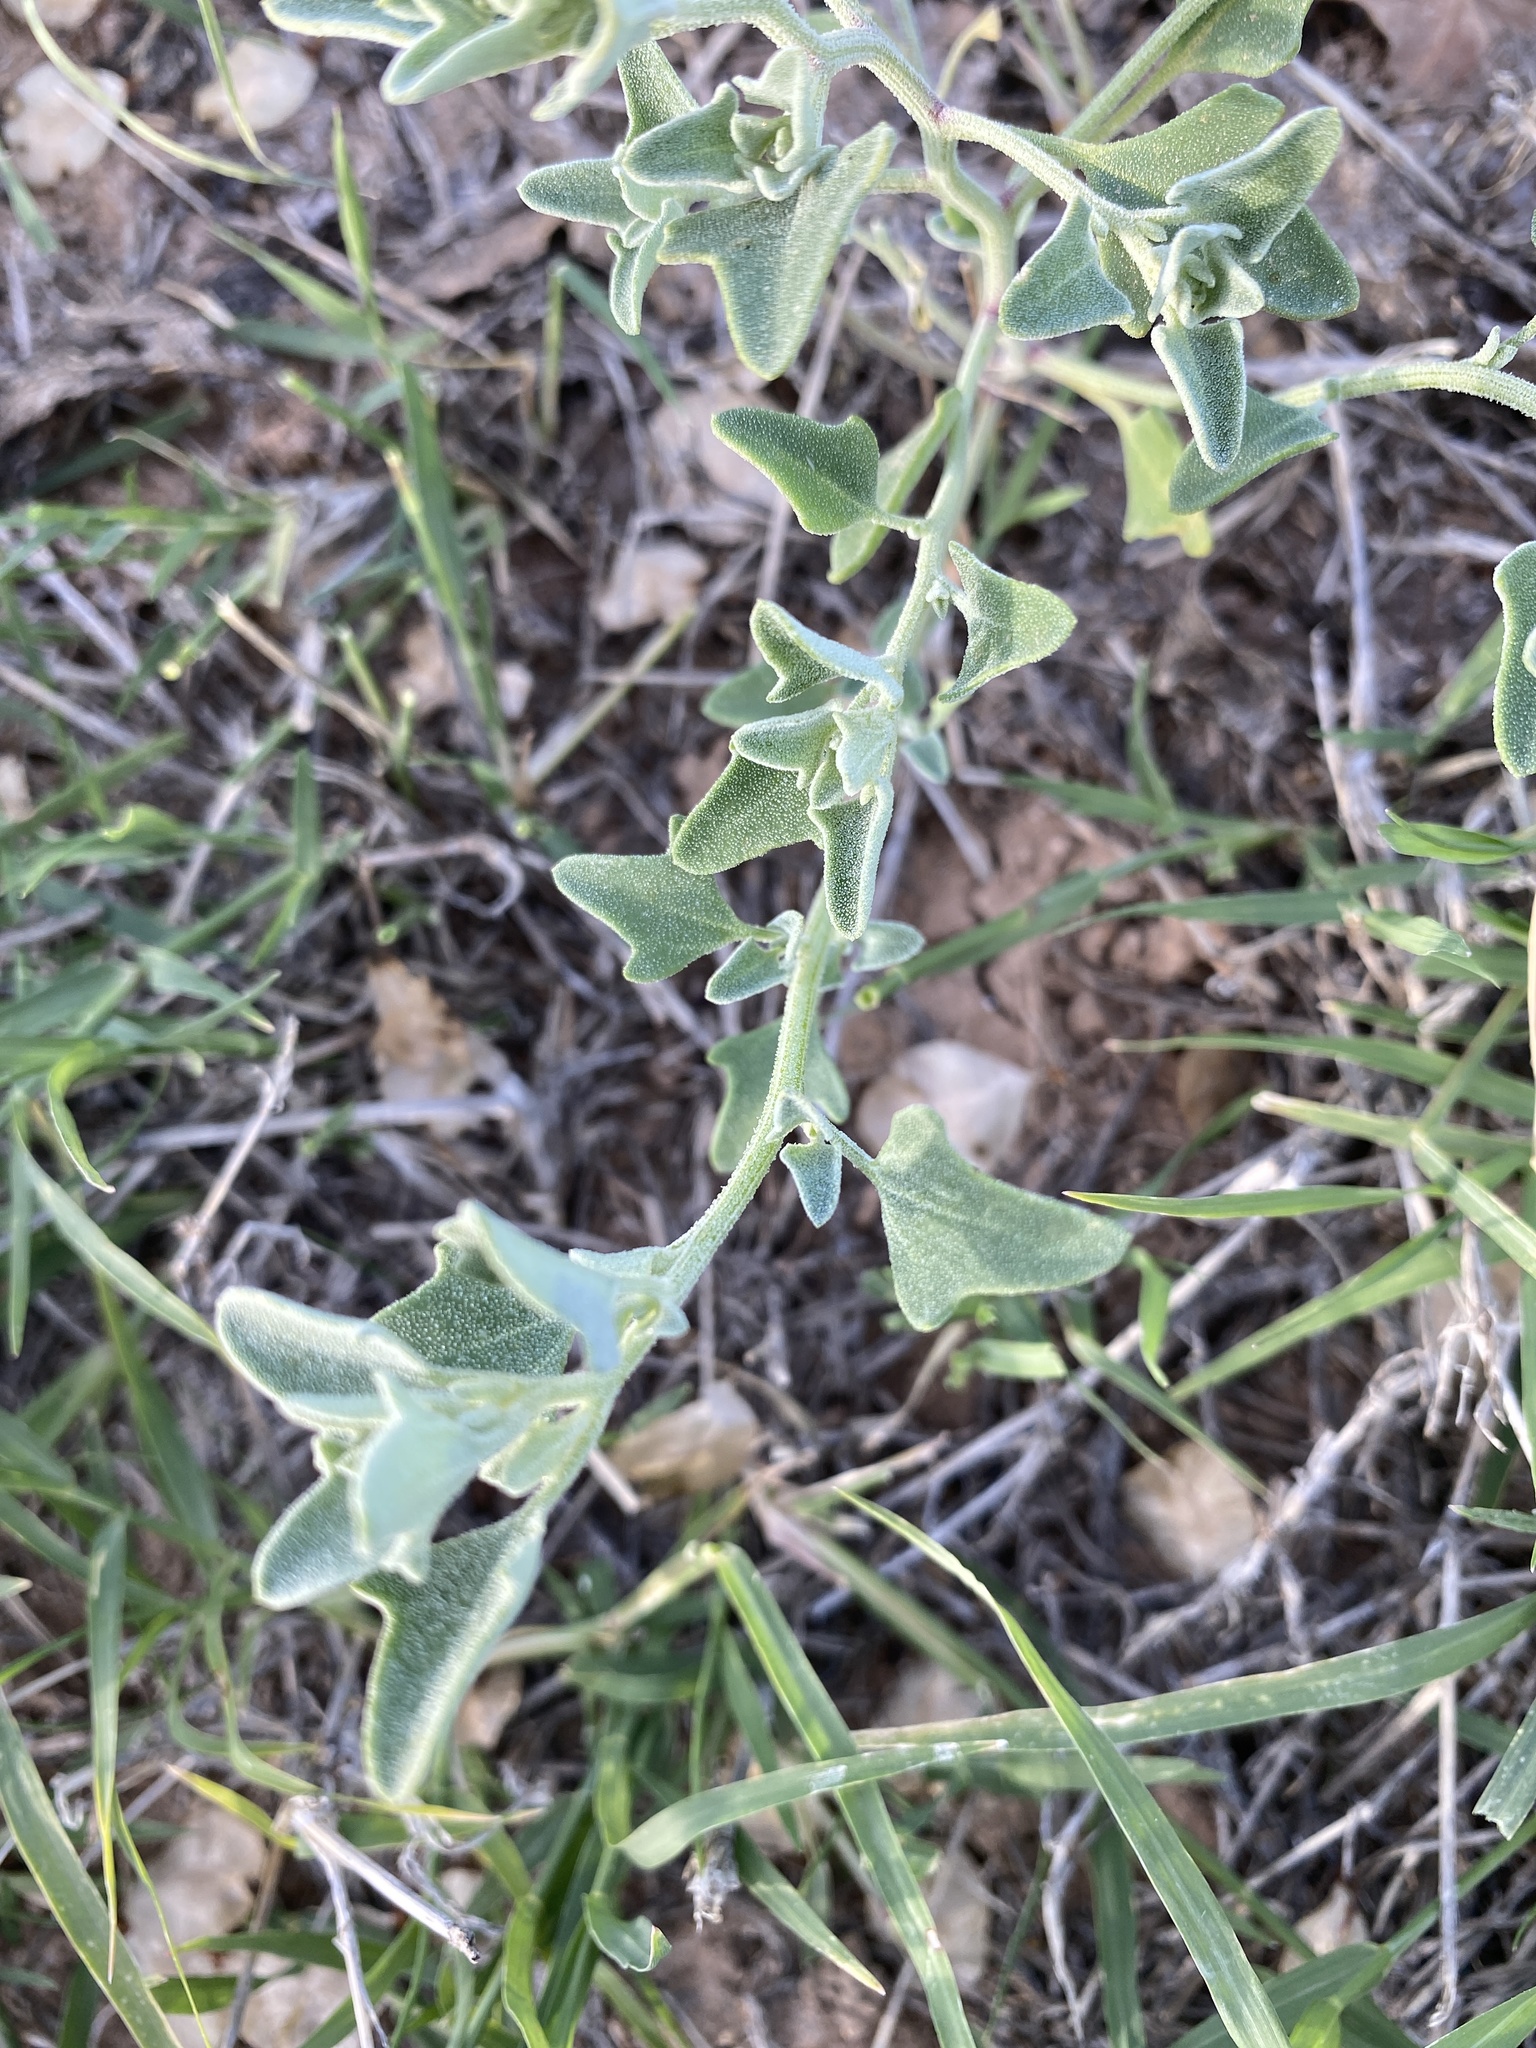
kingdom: Plantae
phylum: Tracheophyta
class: Magnoliopsida
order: Caryophyllales
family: Amaranthaceae
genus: Chenopodium
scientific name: Chenopodium incanum
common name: Hoary goosefoot
